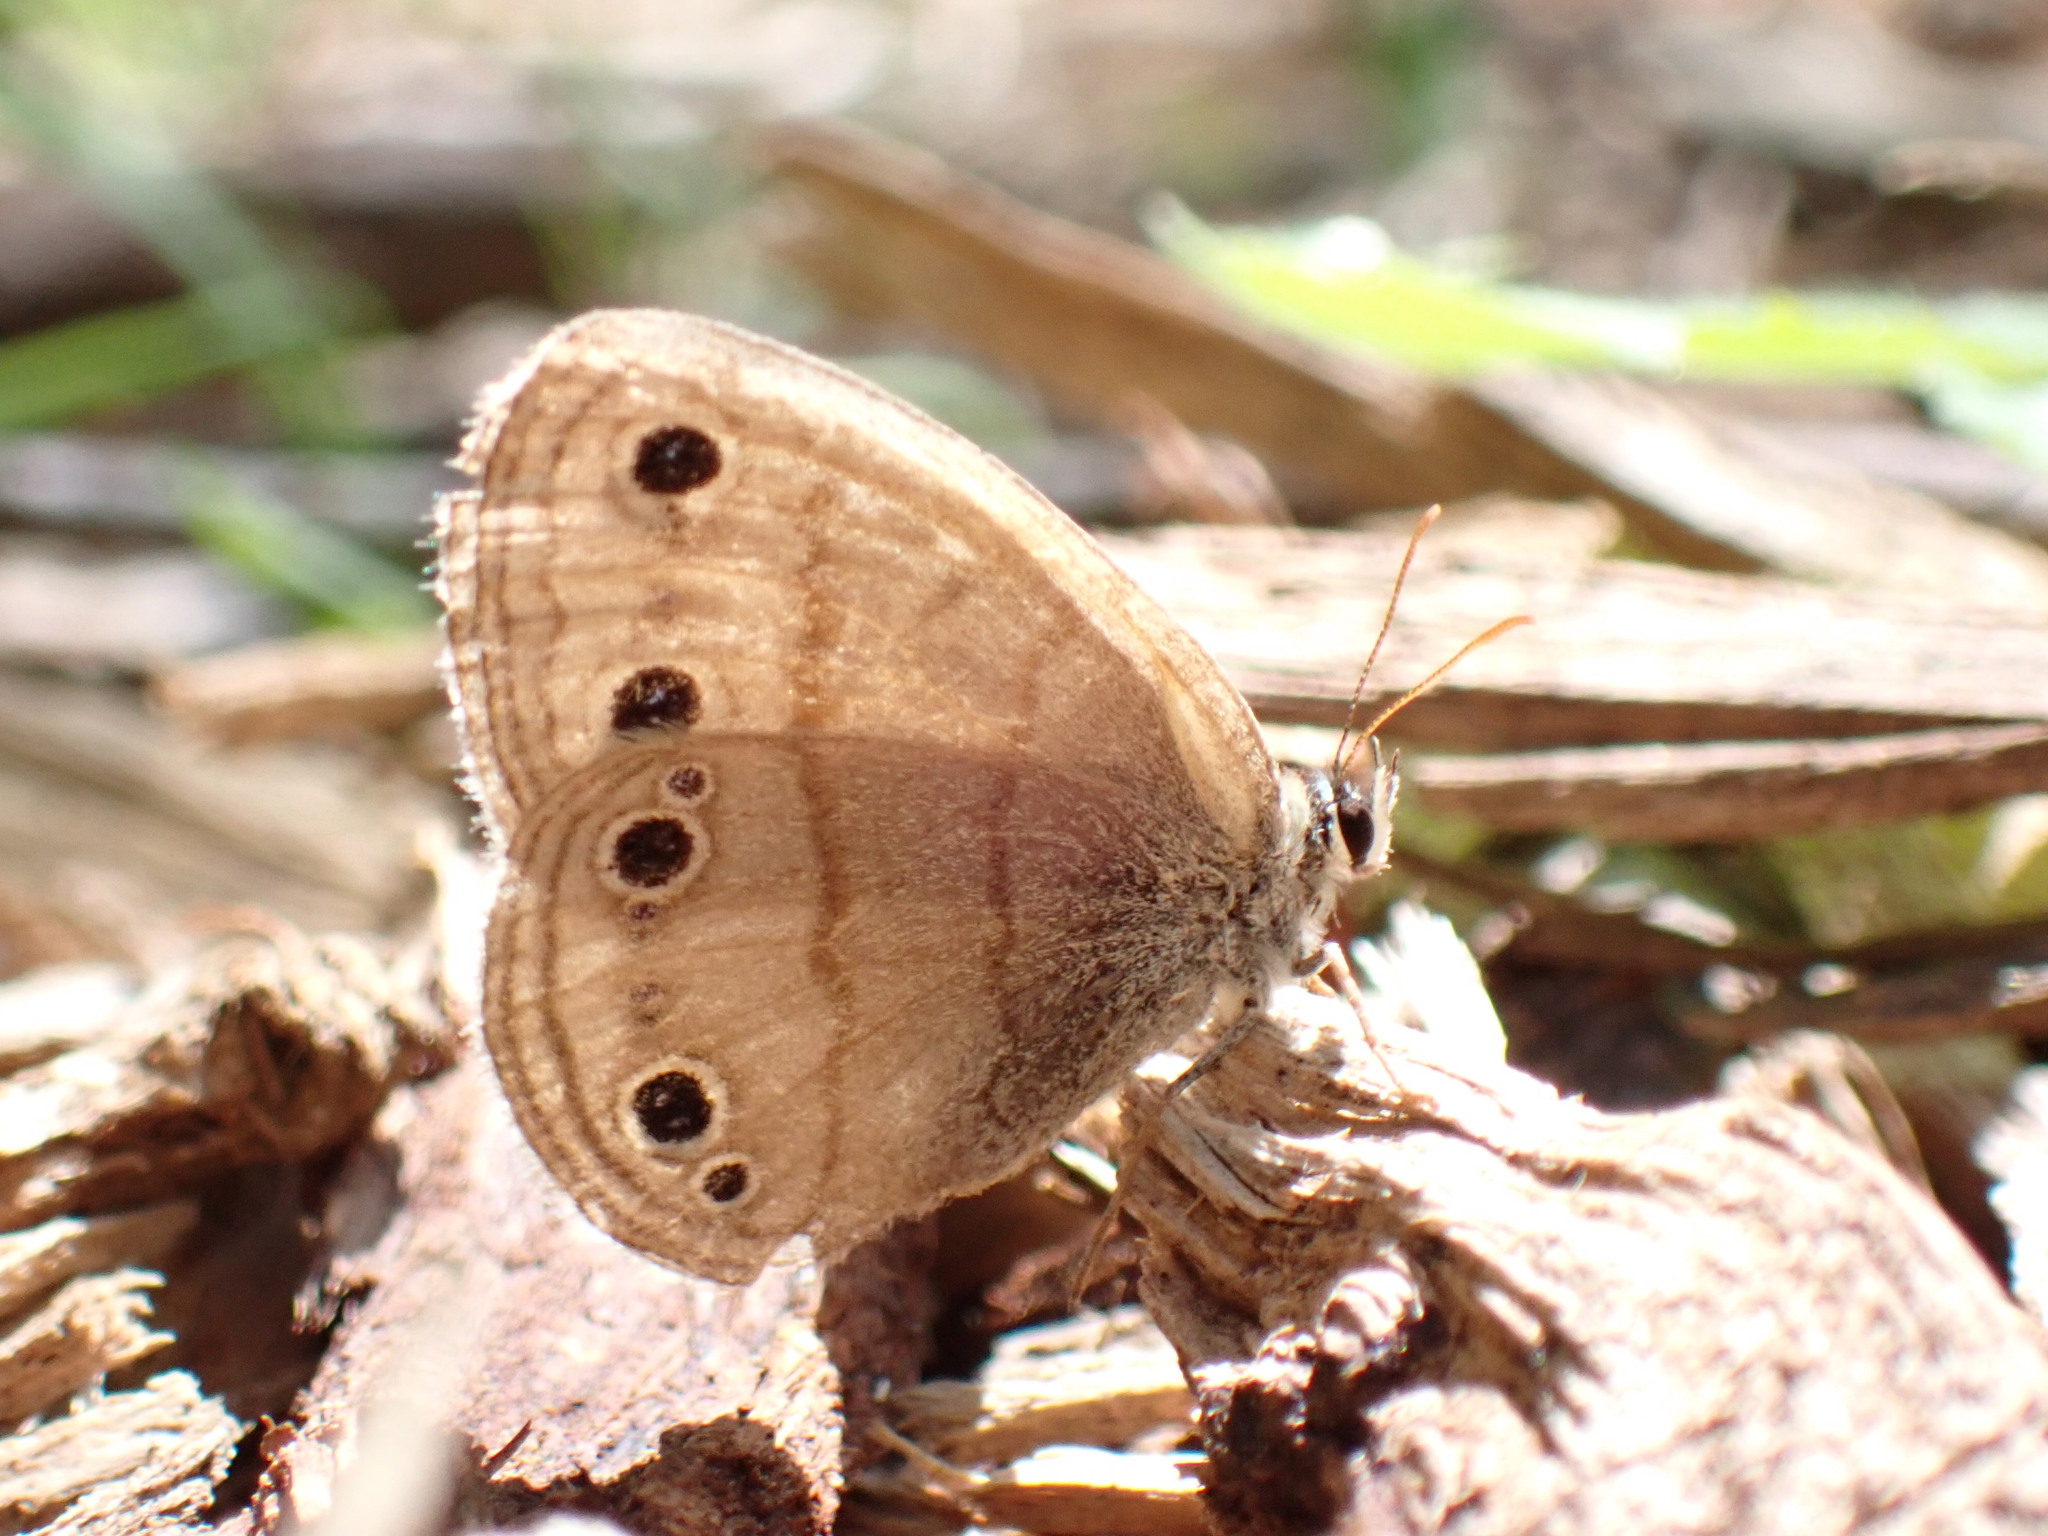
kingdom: Animalia
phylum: Arthropoda
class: Insecta
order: Lepidoptera
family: Nymphalidae
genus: Euptychia
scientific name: Euptychia cymela
